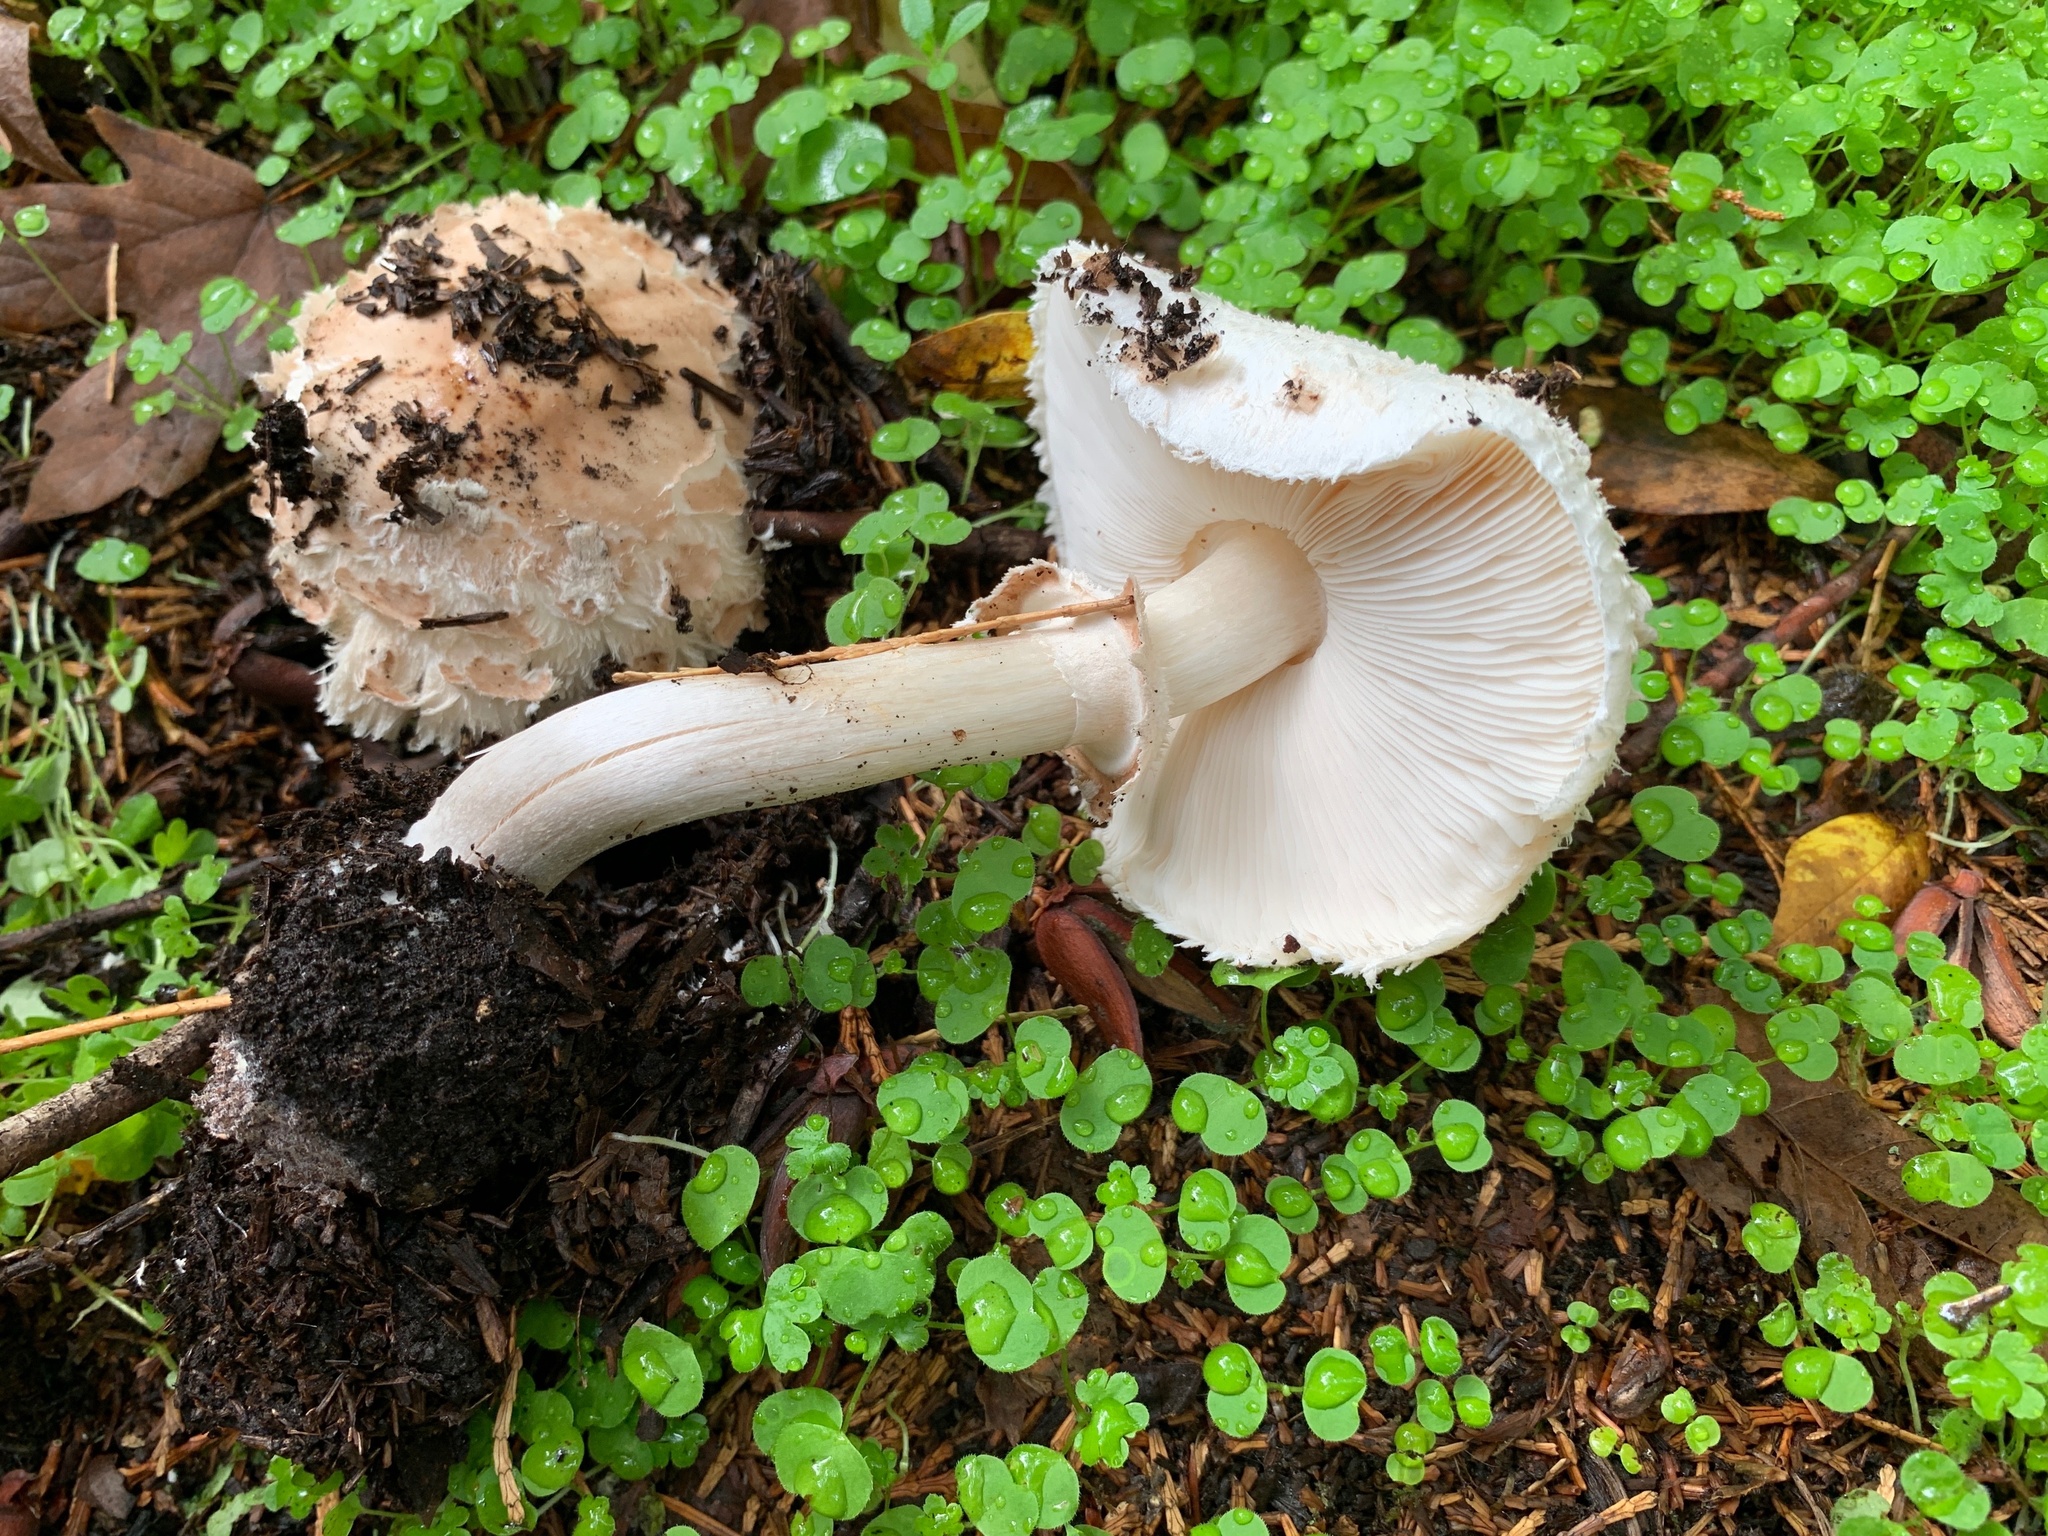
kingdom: Fungi
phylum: Basidiomycota
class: Agaricomycetes
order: Agaricales
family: Agaricaceae
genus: Chlorophyllum
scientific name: Chlorophyllum brunneum
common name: Brown parasol
